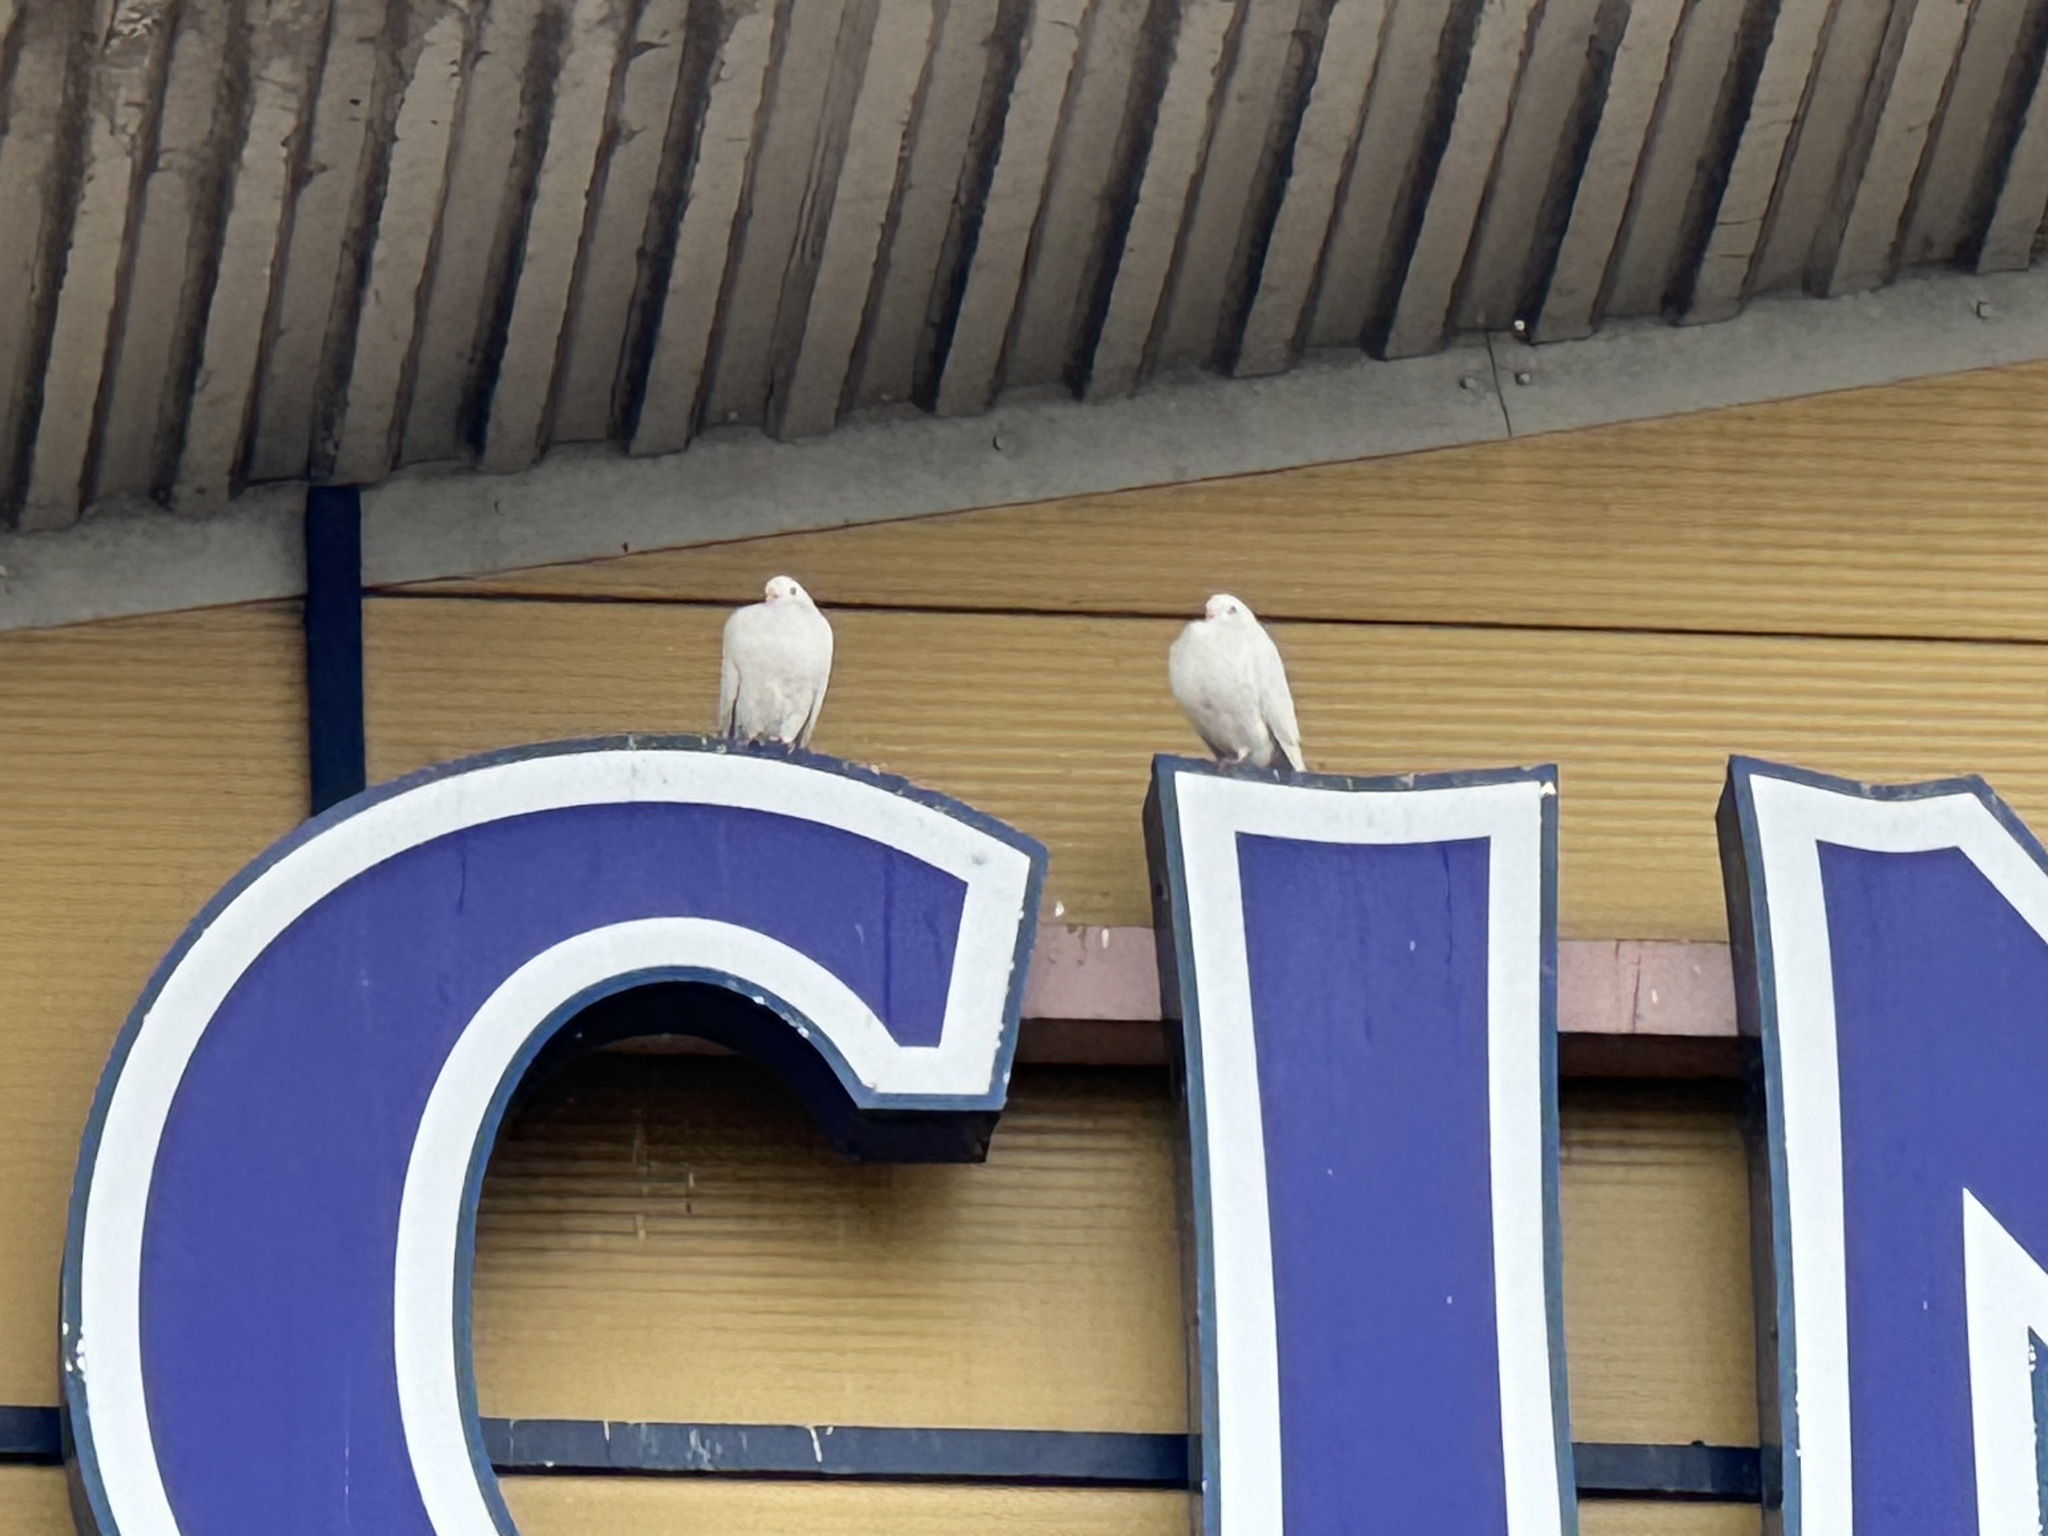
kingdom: Animalia
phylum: Chordata
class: Aves
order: Columbiformes
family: Columbidae
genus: Columba
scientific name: Columba livia
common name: Rock pigeon
